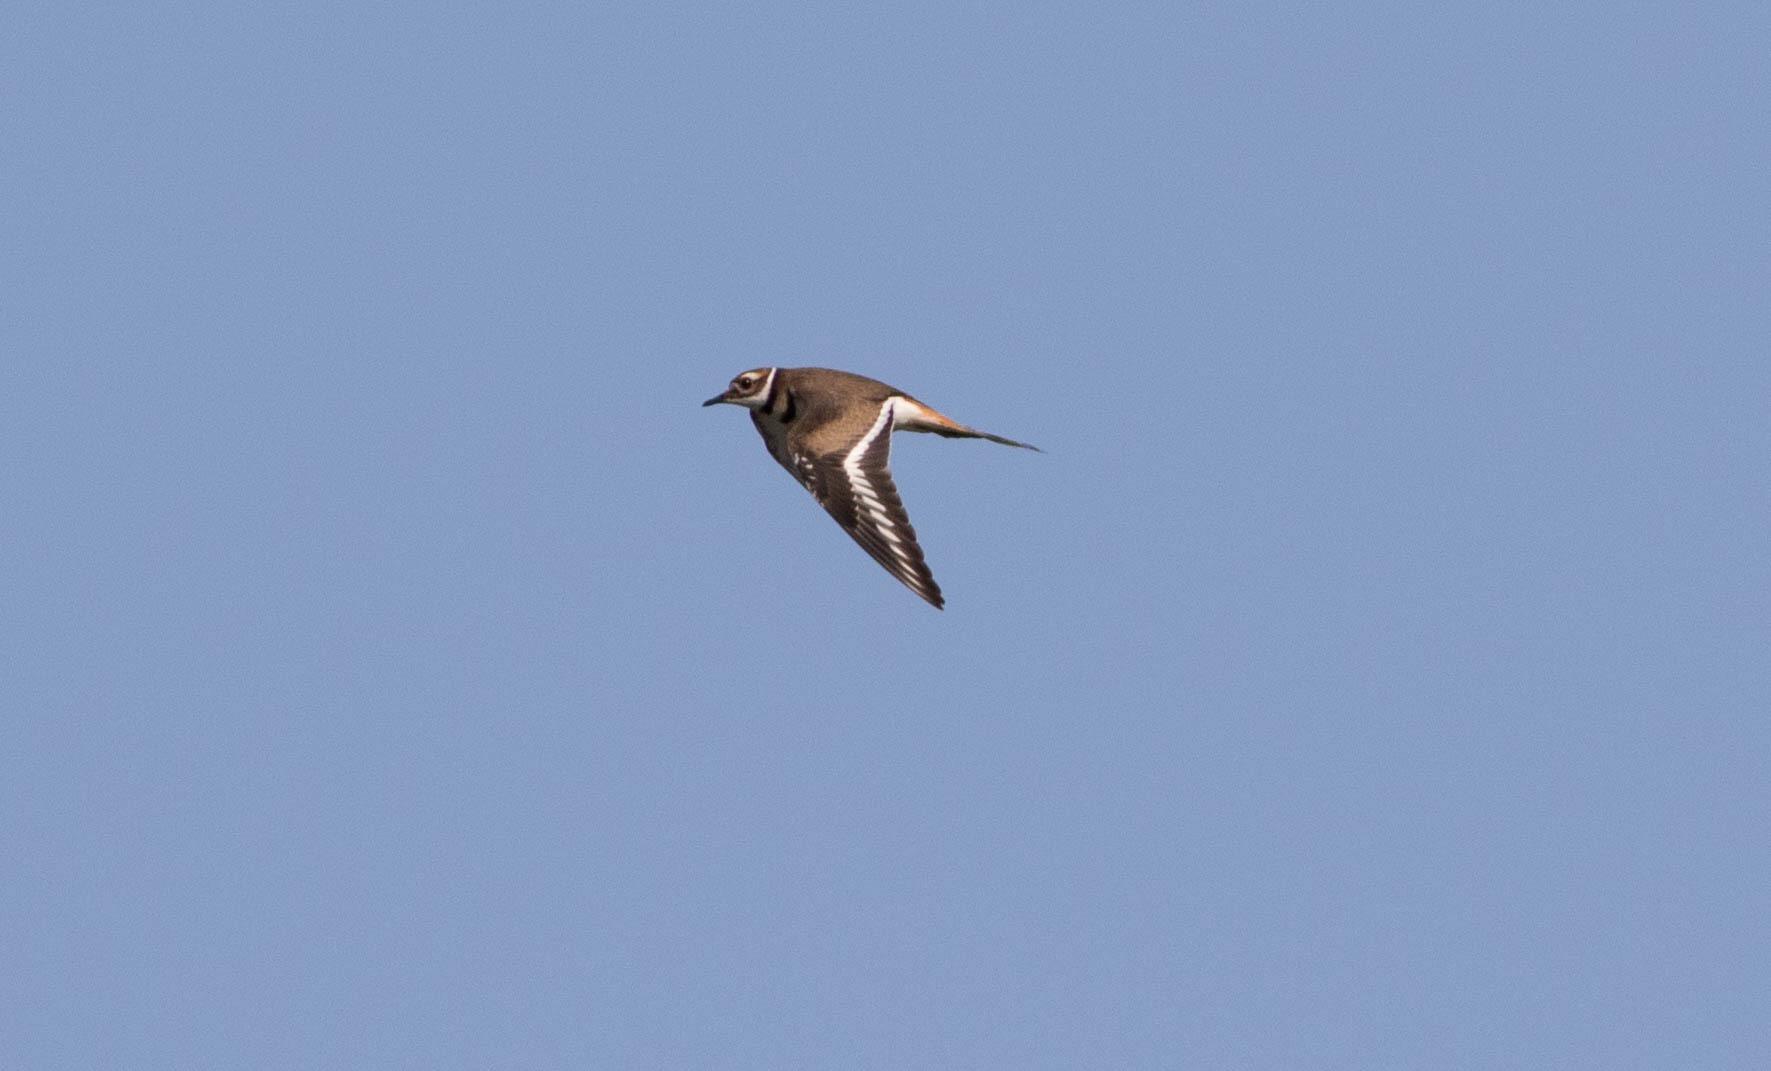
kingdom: Animalia
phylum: Chordata
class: Aves
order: Charadriiformes
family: Charadriidae
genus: Charadrius
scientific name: Charadrius vociferus
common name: Killdeer
